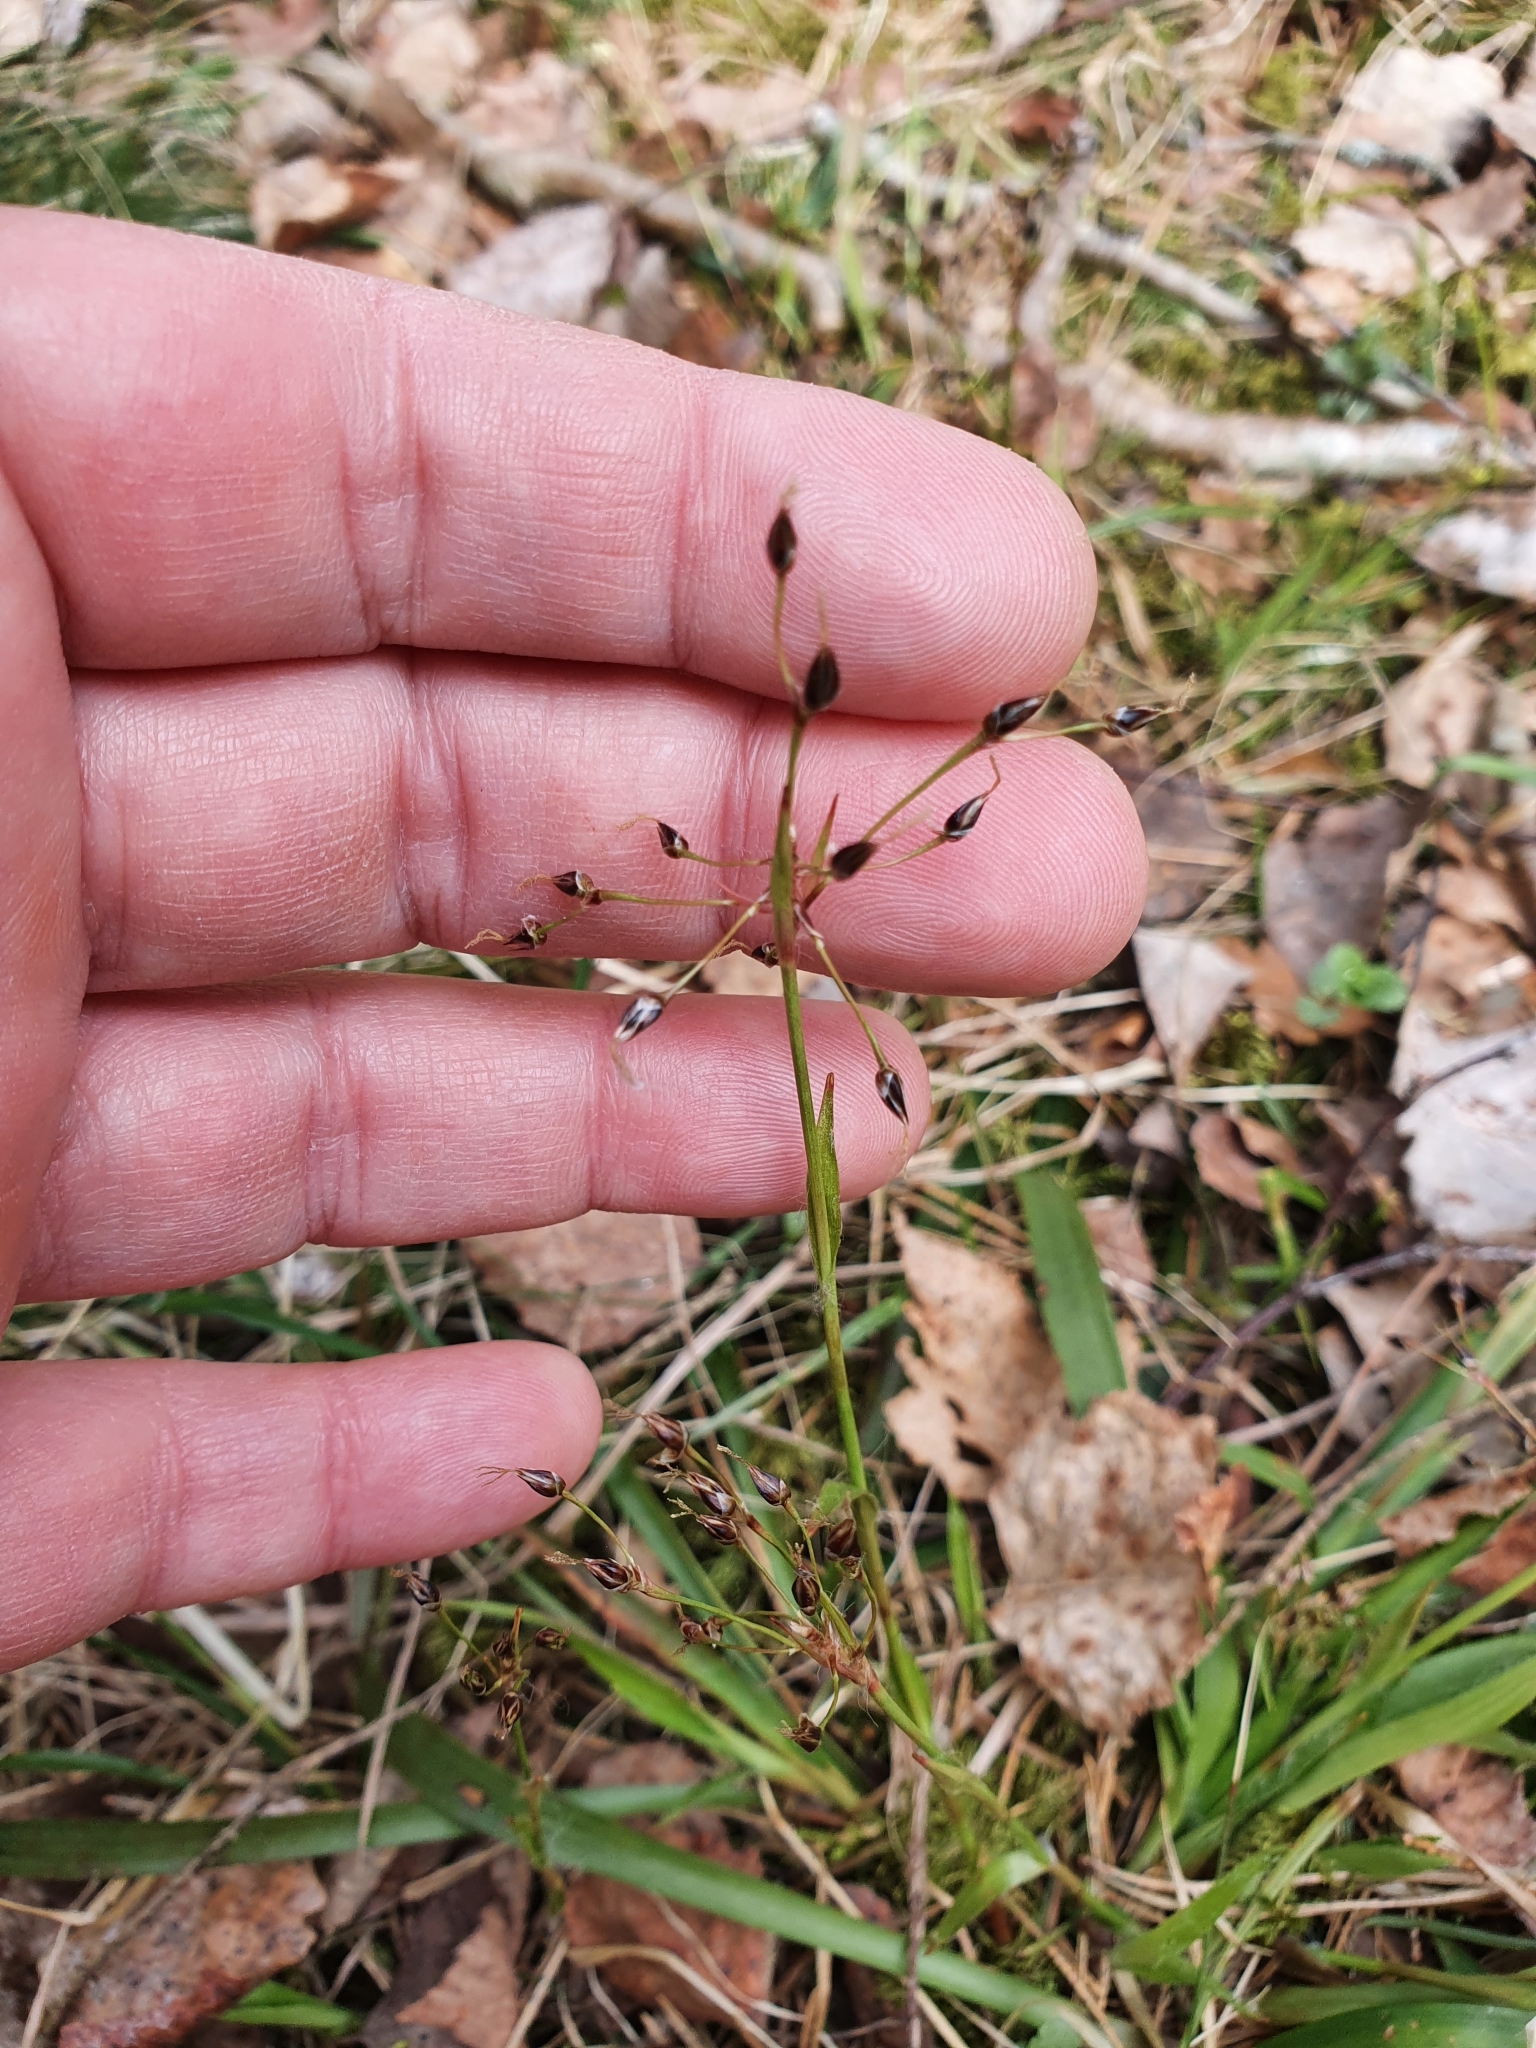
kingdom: Plantae
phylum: Tracheophyta
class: Liliopsida
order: Poales
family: Juncaceae
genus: Luzula
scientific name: Luzula pilosa
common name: Hairy wood-rush
